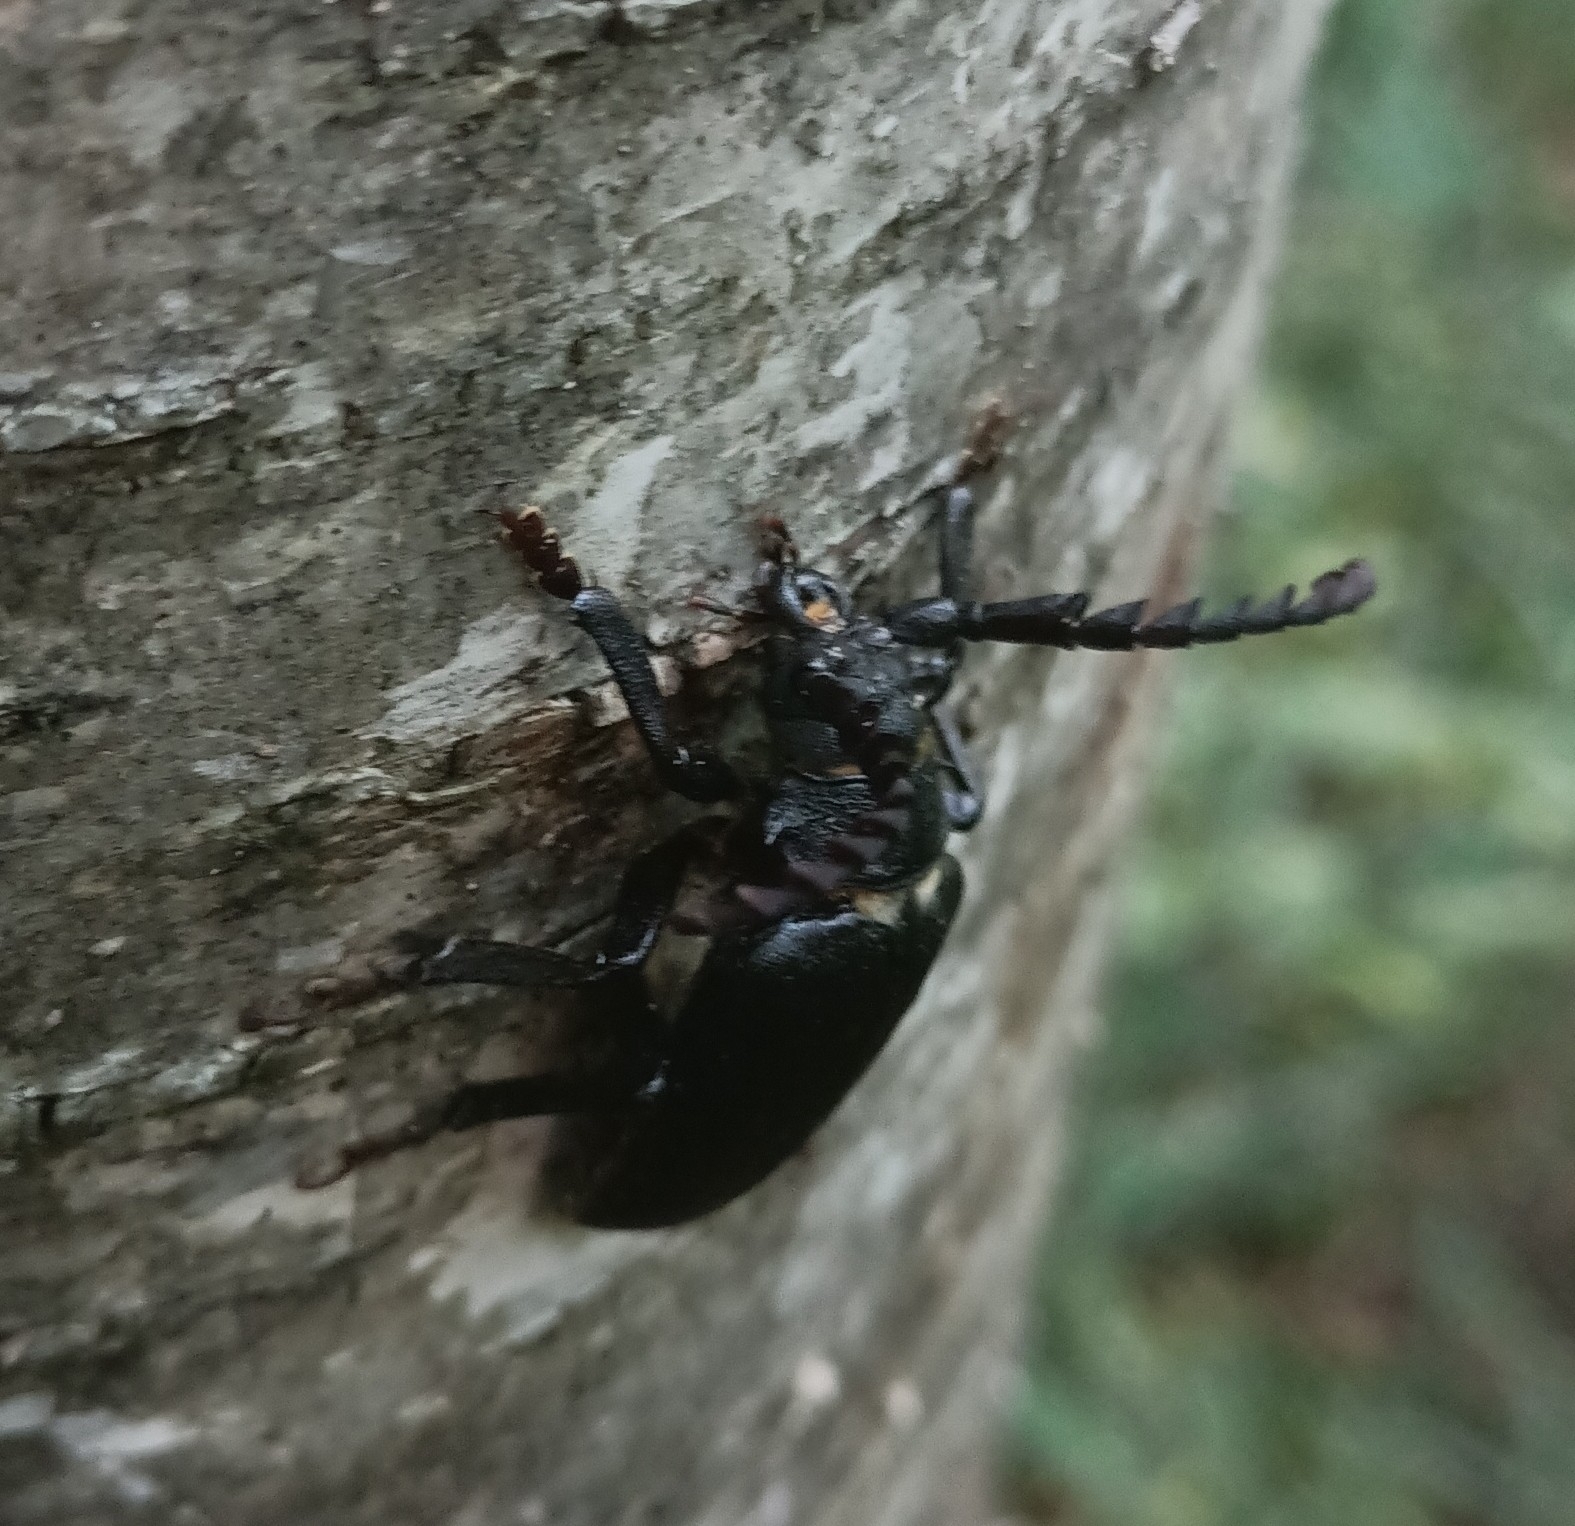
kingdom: Animalia
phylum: Arthropoda
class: Insecta
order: Coleoptera
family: Cerambycidae
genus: Prionus
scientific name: Prionus coriarius
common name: Tanner beetle
